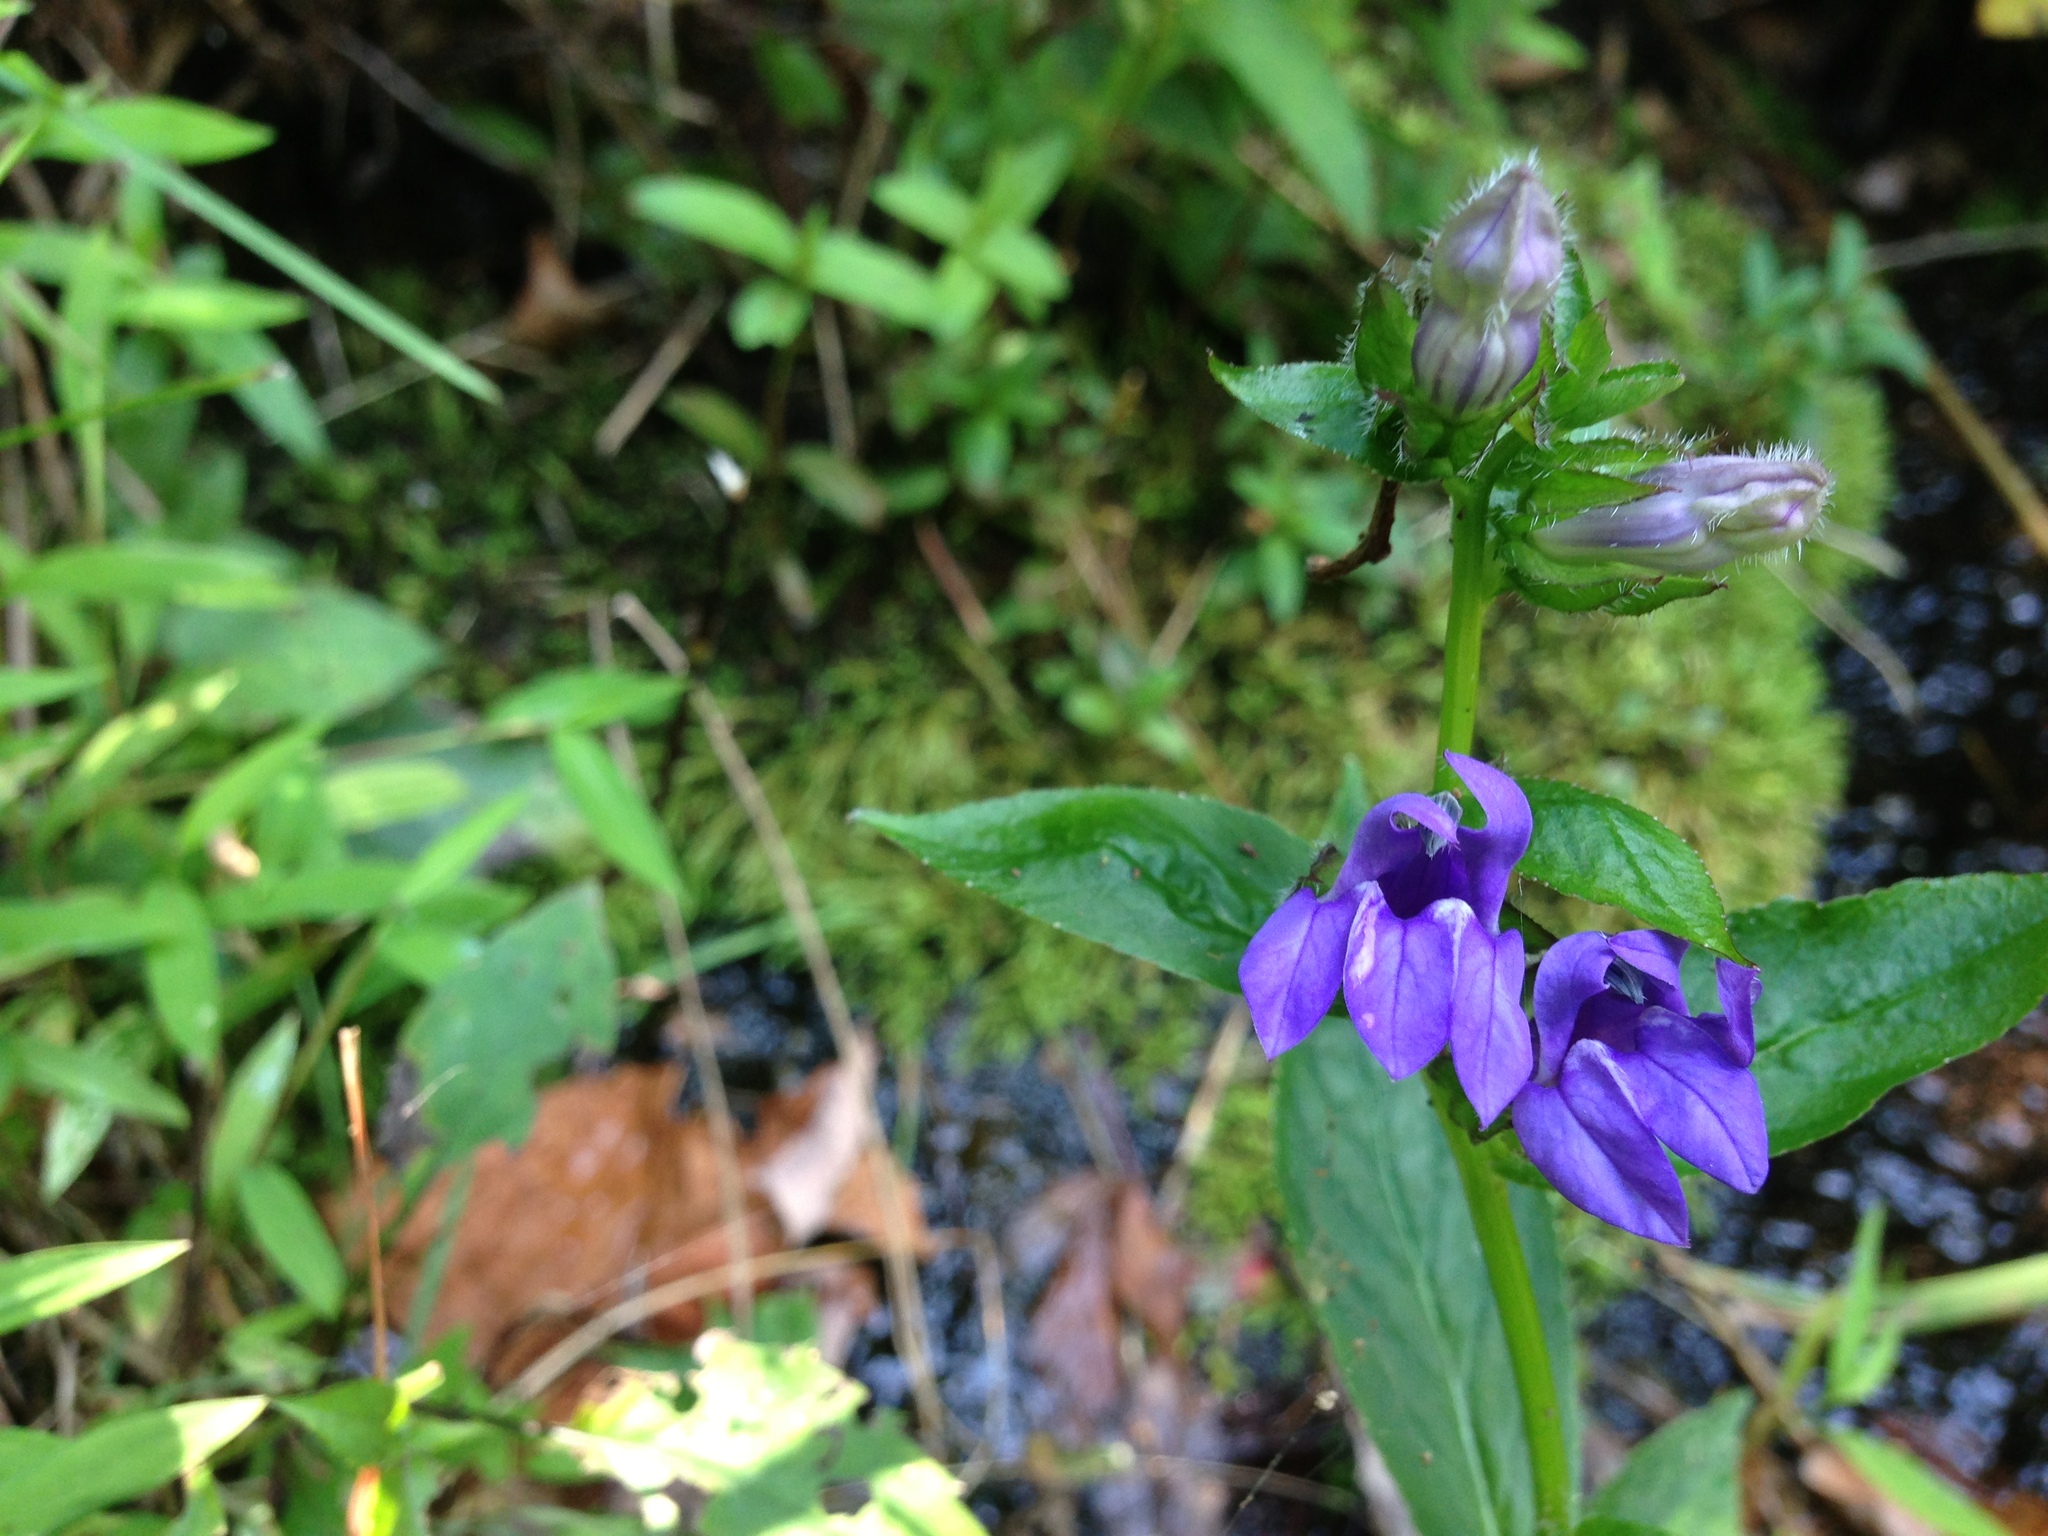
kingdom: Plantae
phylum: Tracheophyta
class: Magnoliopsida
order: Asterales
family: Campanulaceae
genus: Lobelia
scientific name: Lobelia siphilitica
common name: Great lobelia
